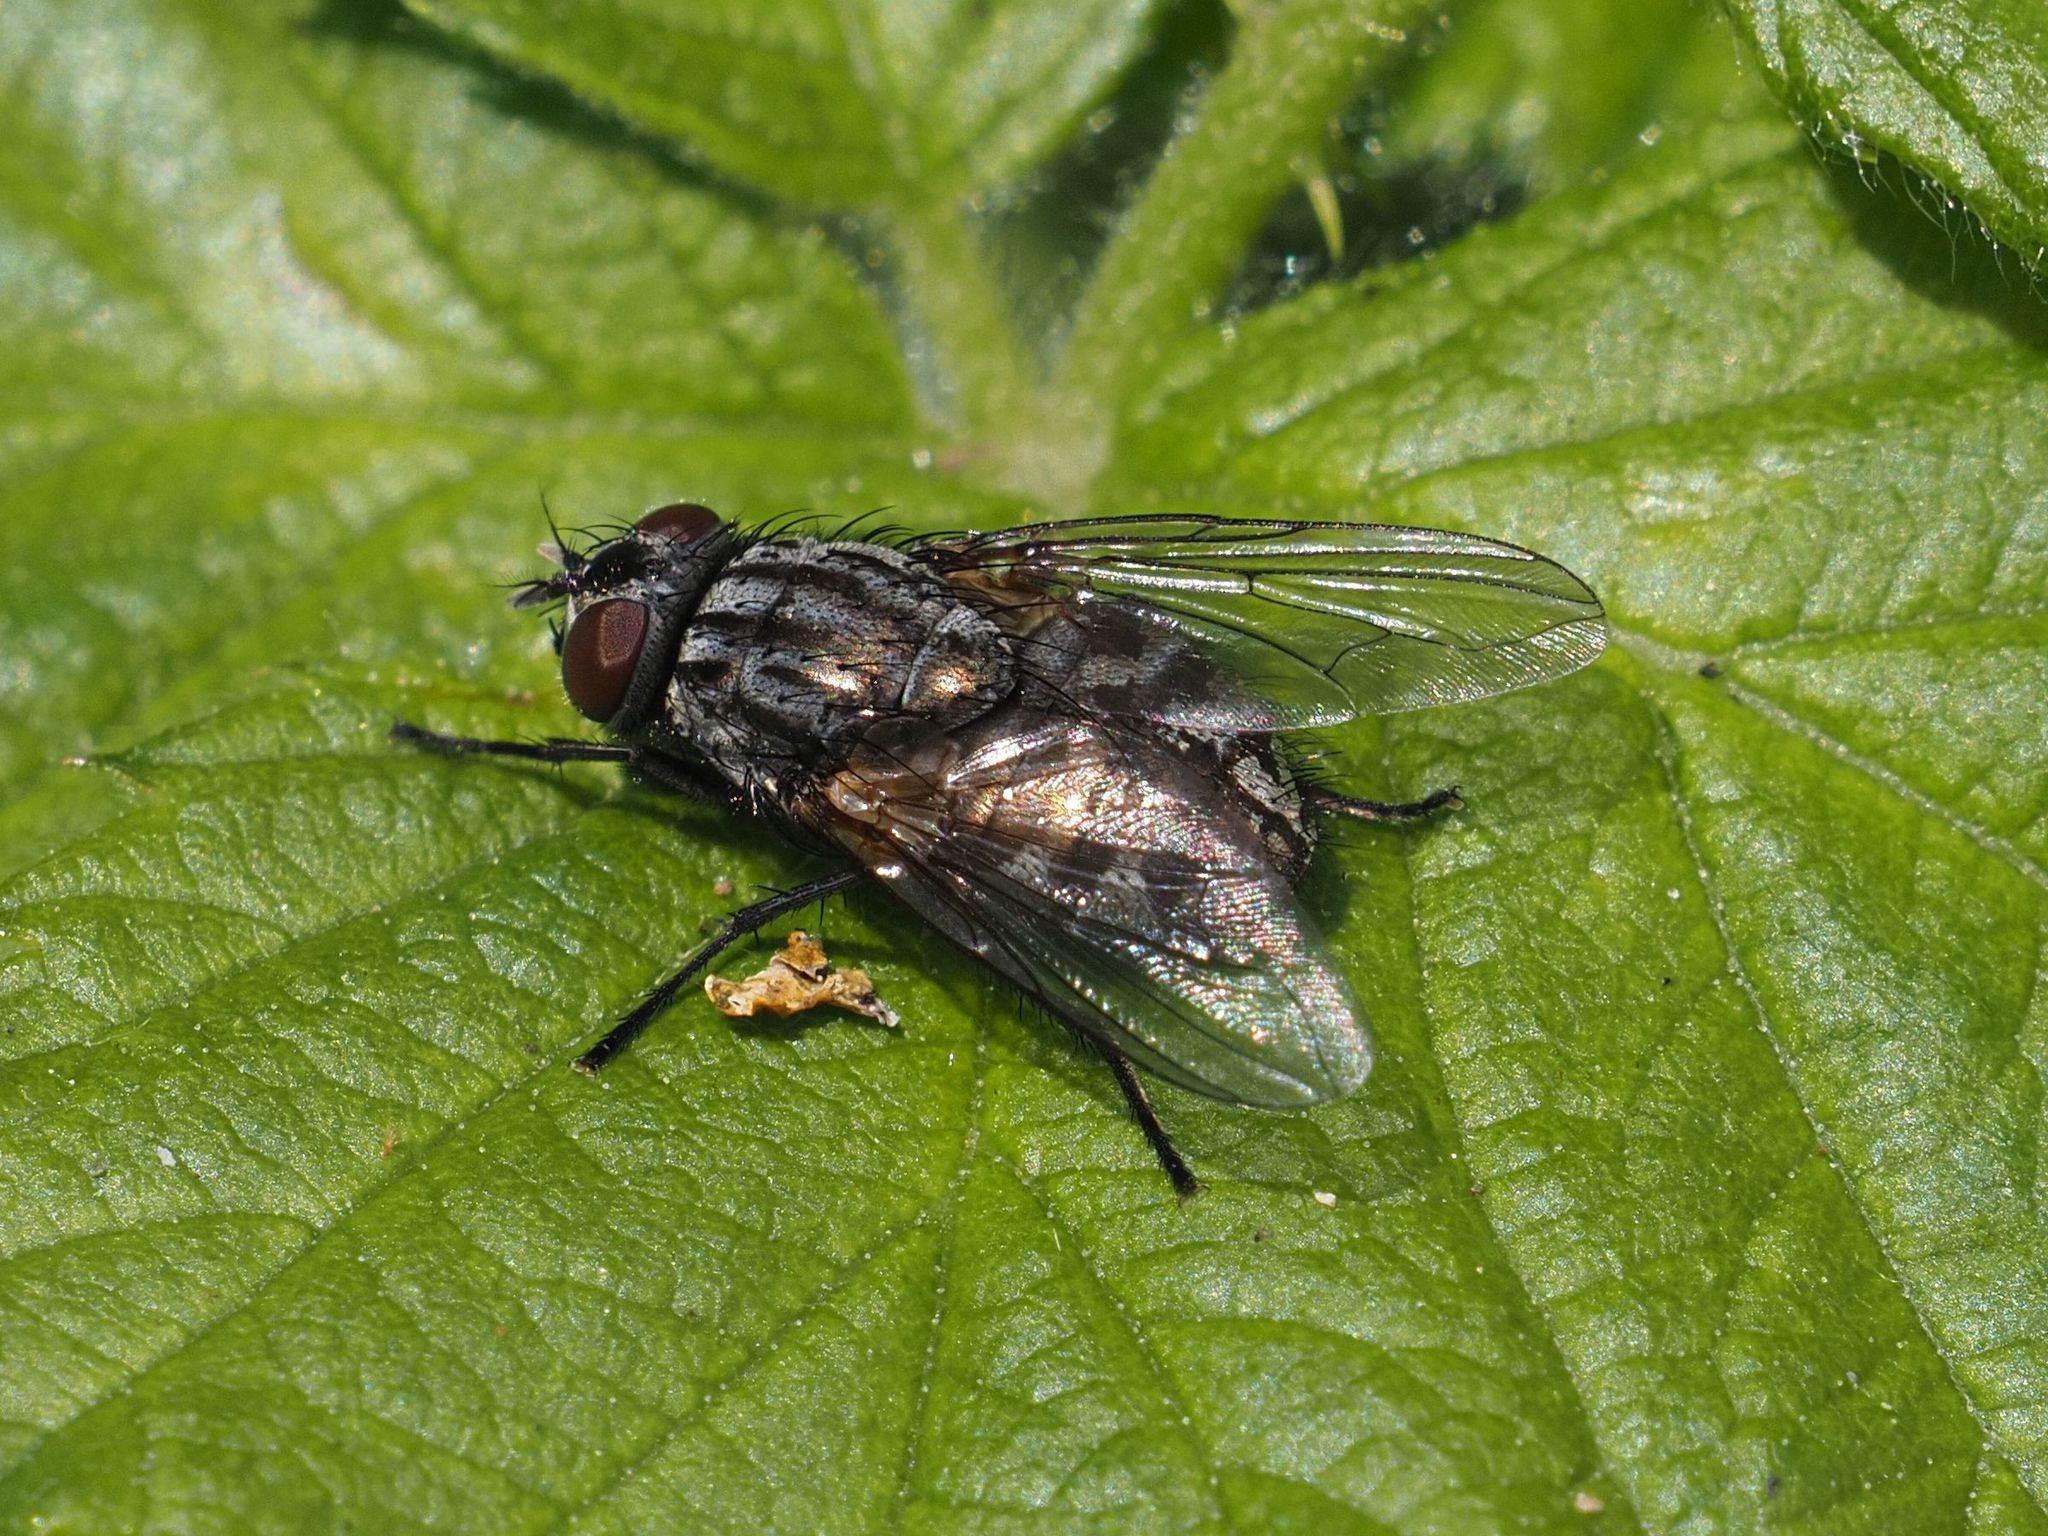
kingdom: Animalia
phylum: Arthropoda
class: Insecta
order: Diptera
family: Muscidae
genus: Dasyphora
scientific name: Dasyphora albofasciata
